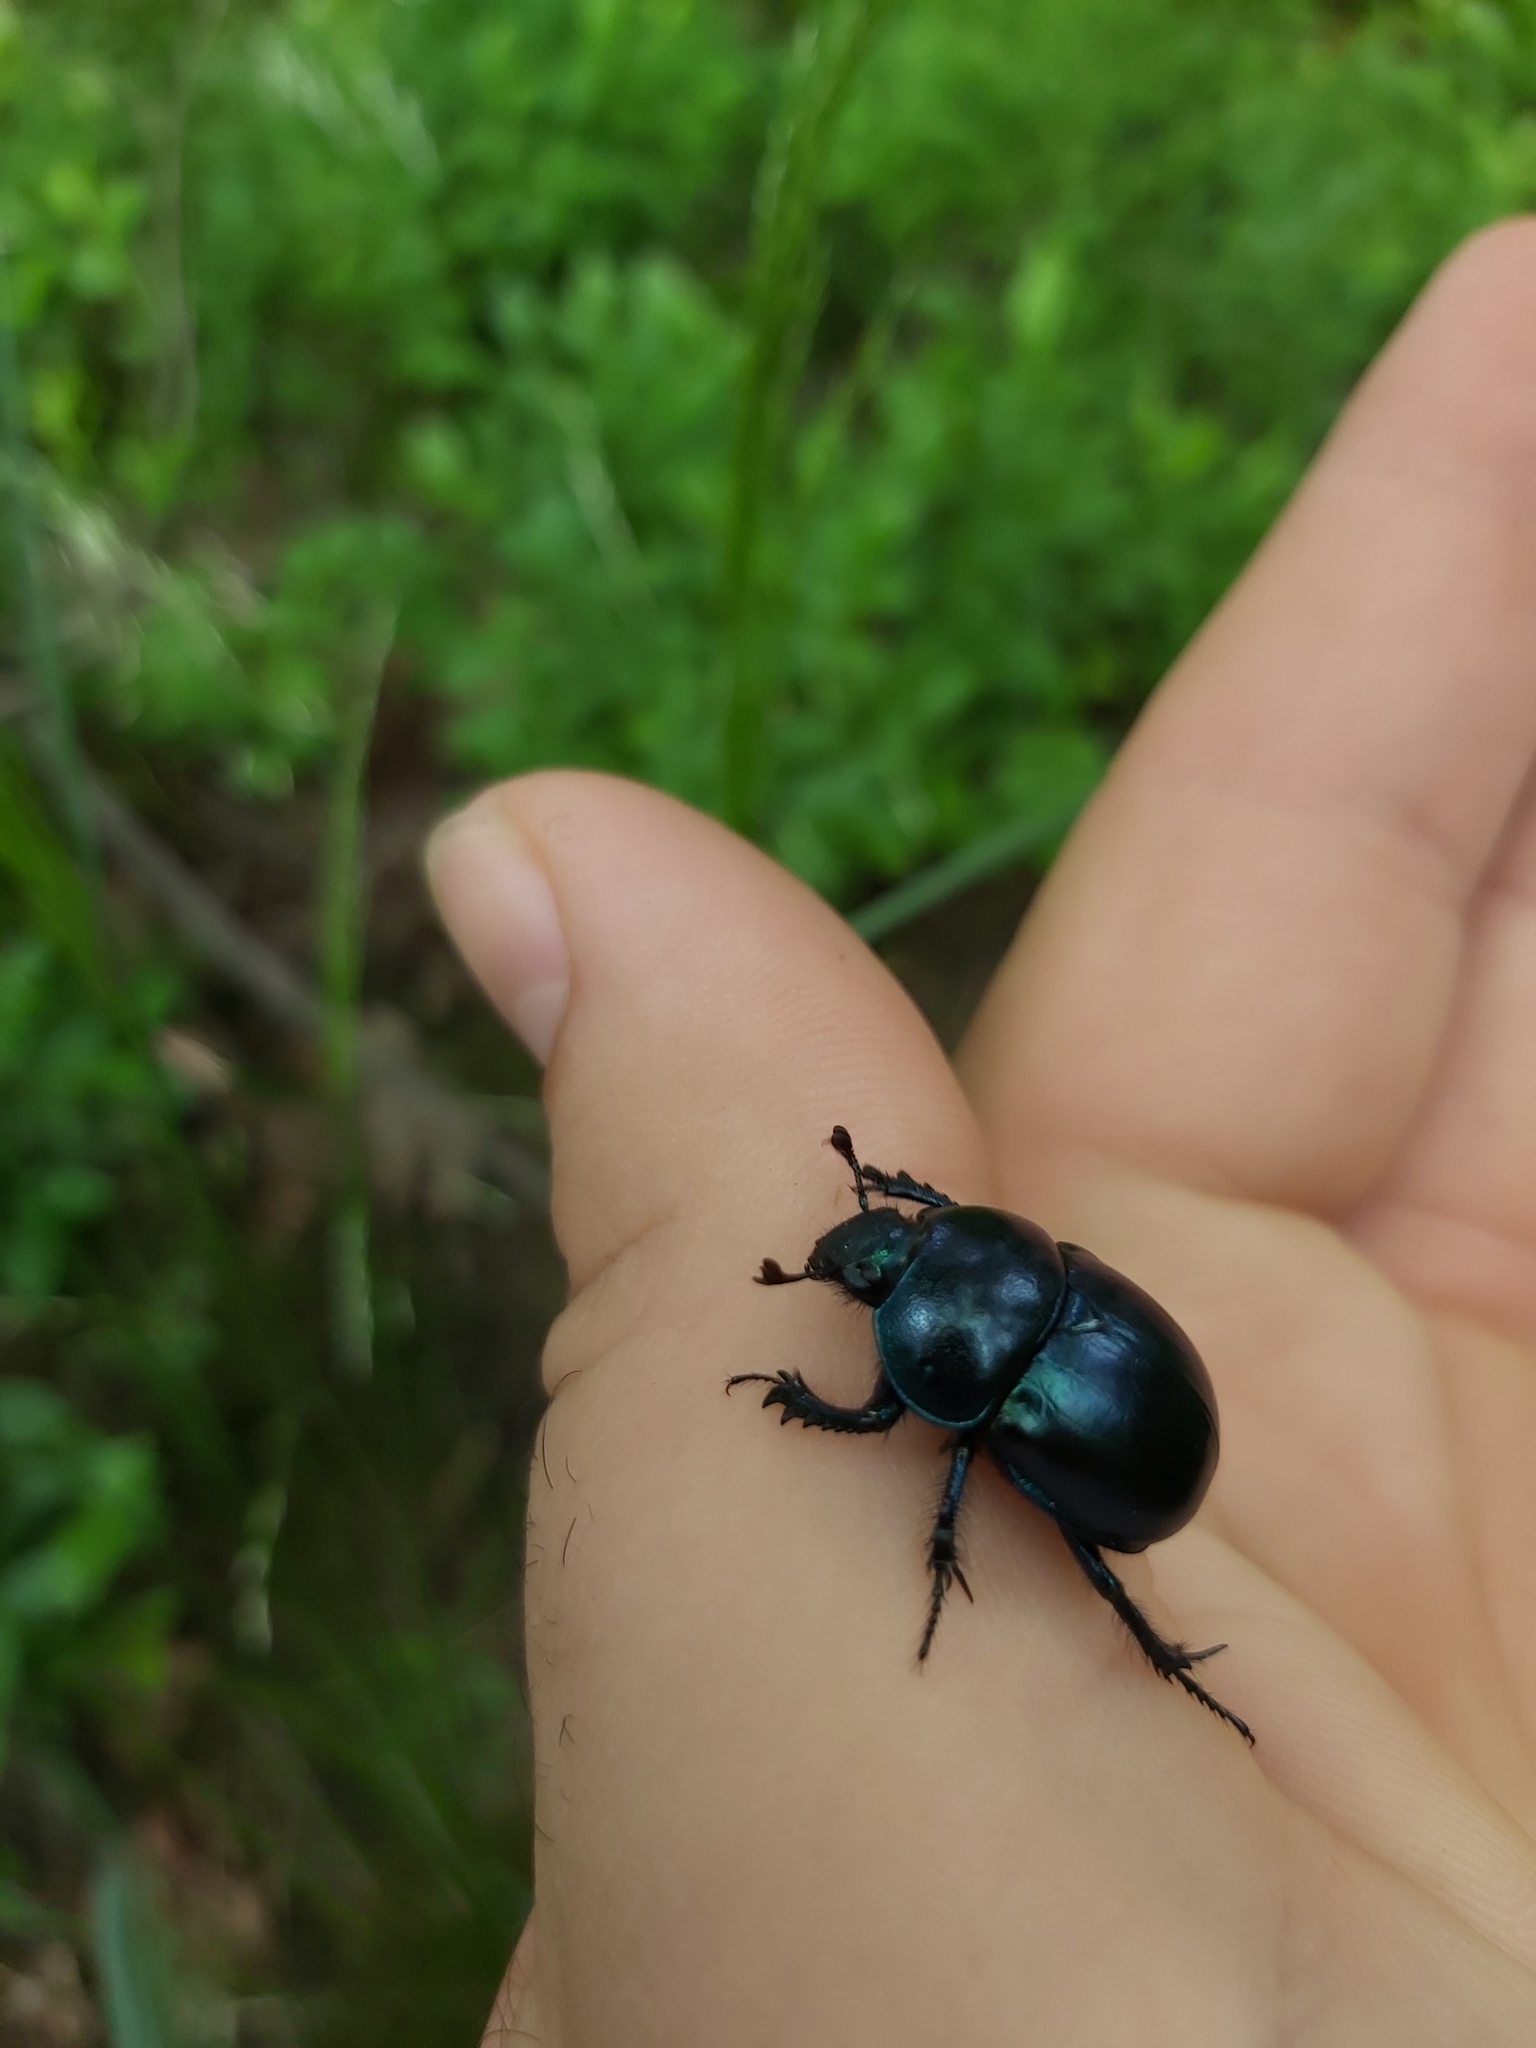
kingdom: Animalia
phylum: Arthropoda
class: Insecta
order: Coleoptera
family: Geotrupidae
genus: Trypocopris
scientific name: Trypocopris vernalis
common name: Spring dumbledor
